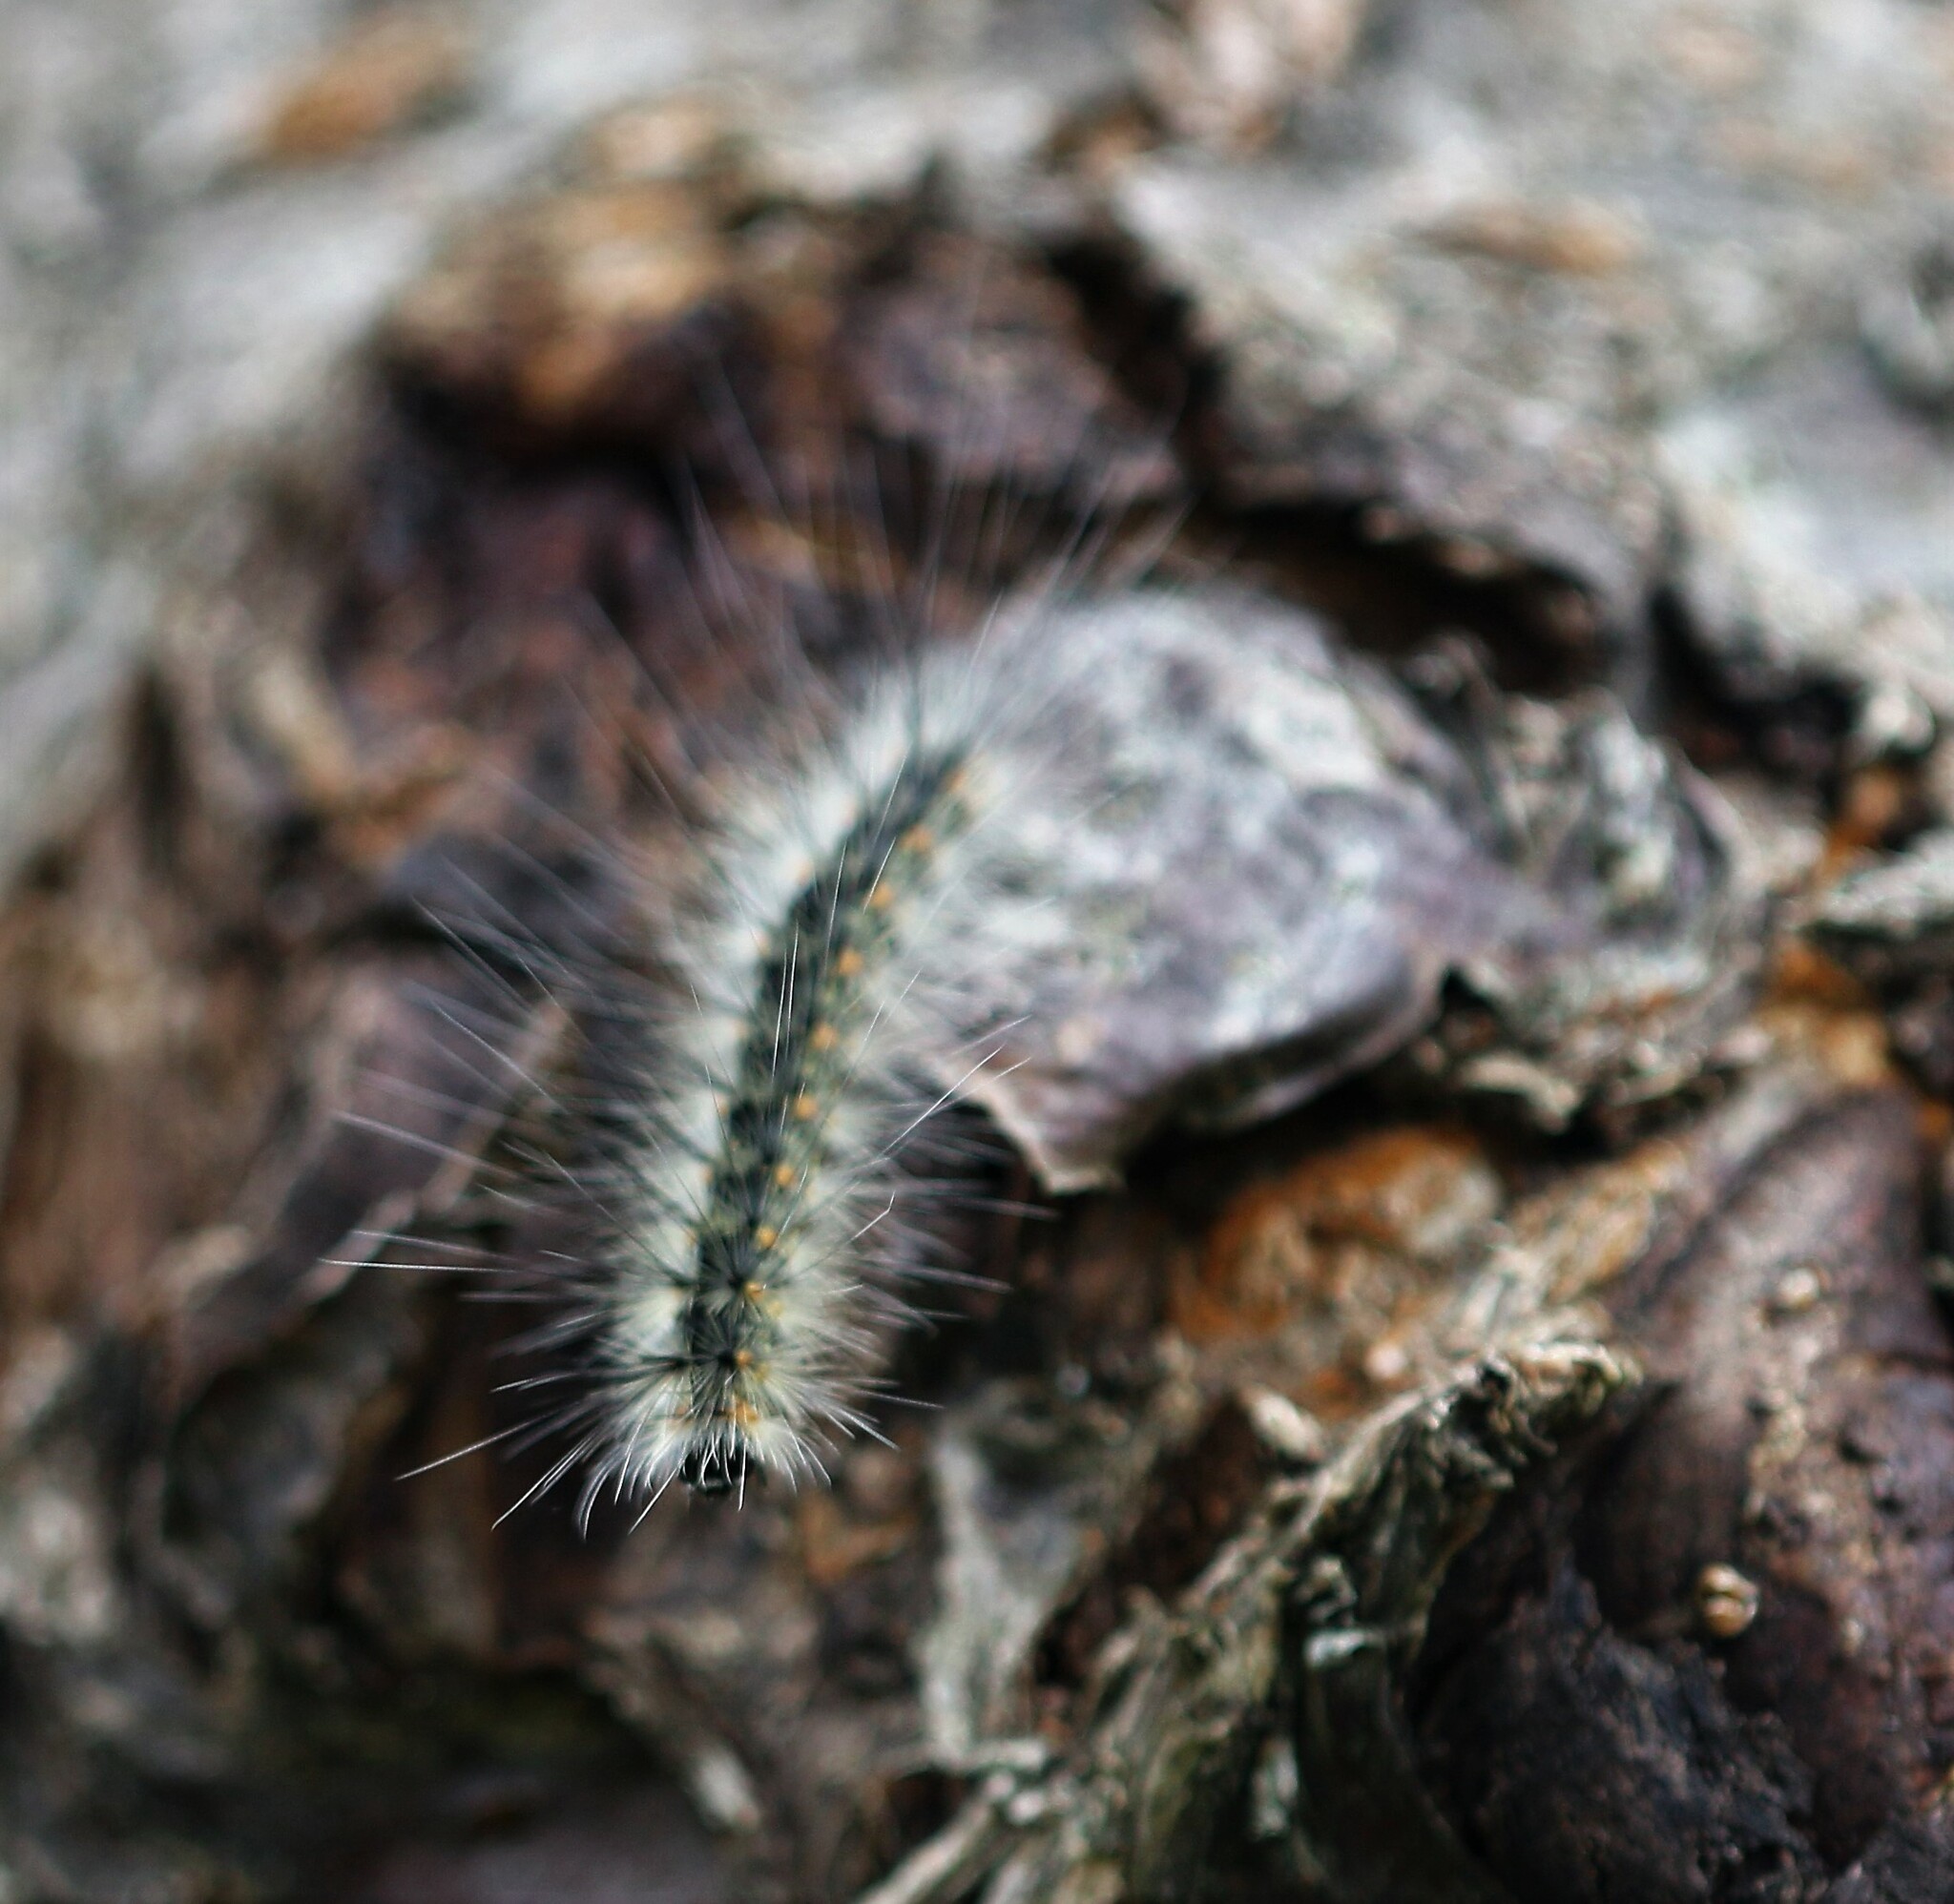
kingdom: Animalia
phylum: Arthropoda
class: Insecta
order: Lepidoptera
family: Erebidae
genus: Hyphantria
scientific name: Hyphantria cunea
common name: American white moth
